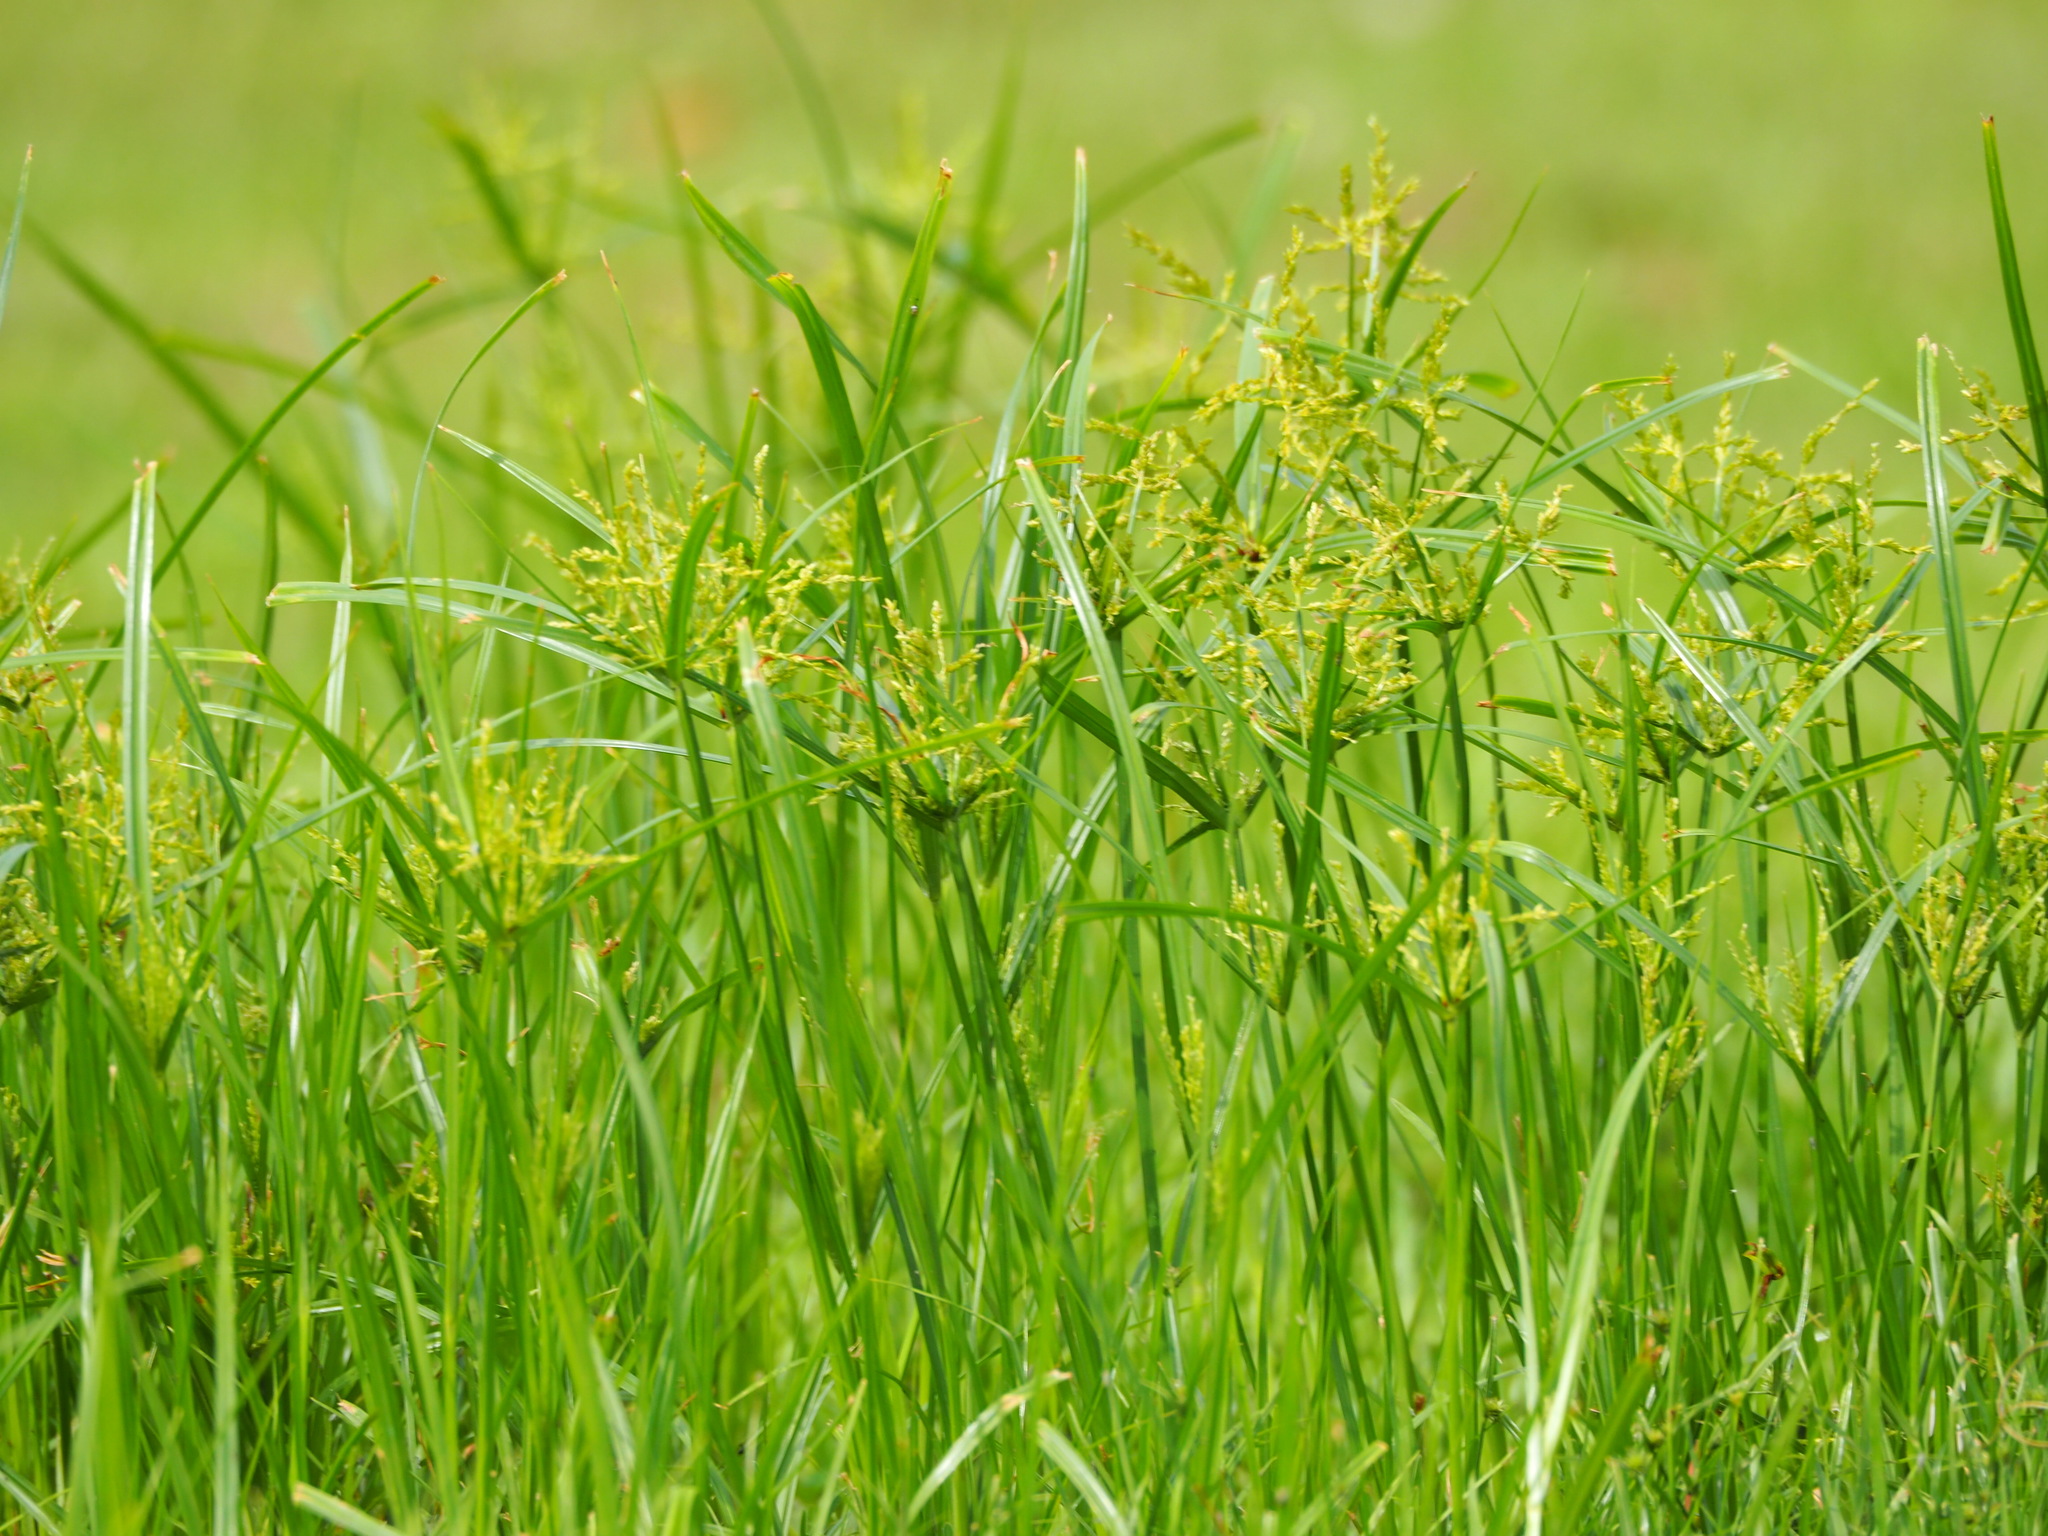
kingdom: Plantae
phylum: Tracheophyta
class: Liliopsida
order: Poales
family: Cyperaceae
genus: Cyperus
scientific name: Cyperus iria
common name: Ricefield flatsedge
